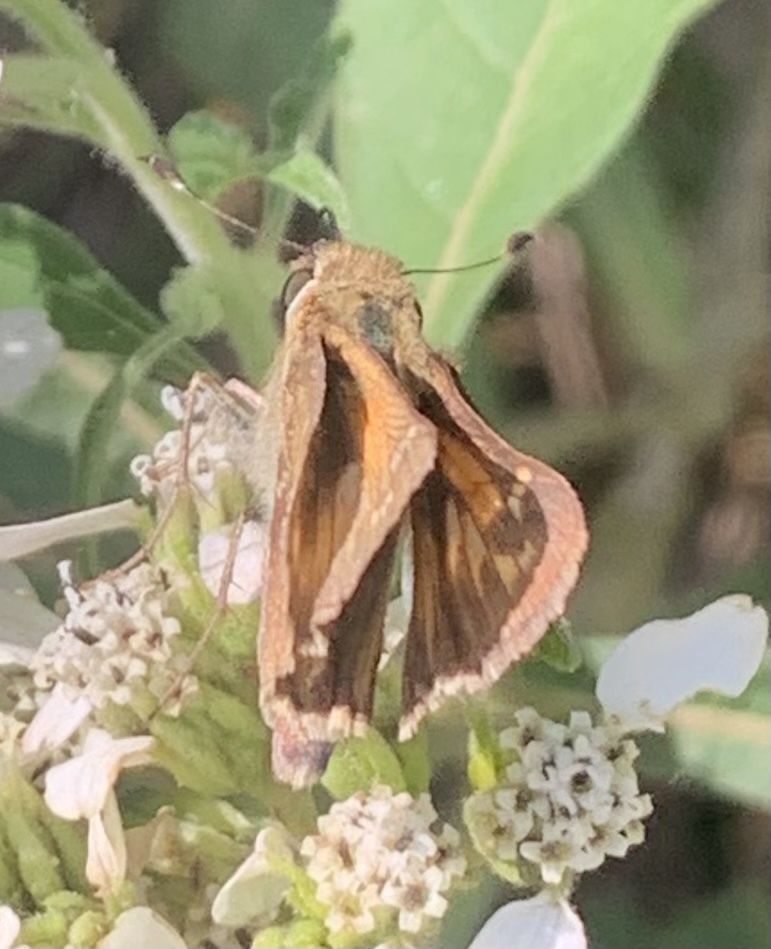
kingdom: Animalia
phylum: Arthropoda
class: Insecta
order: Lepidoptera
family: Hesperiidae
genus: Atalopedes
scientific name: Atalopedes
